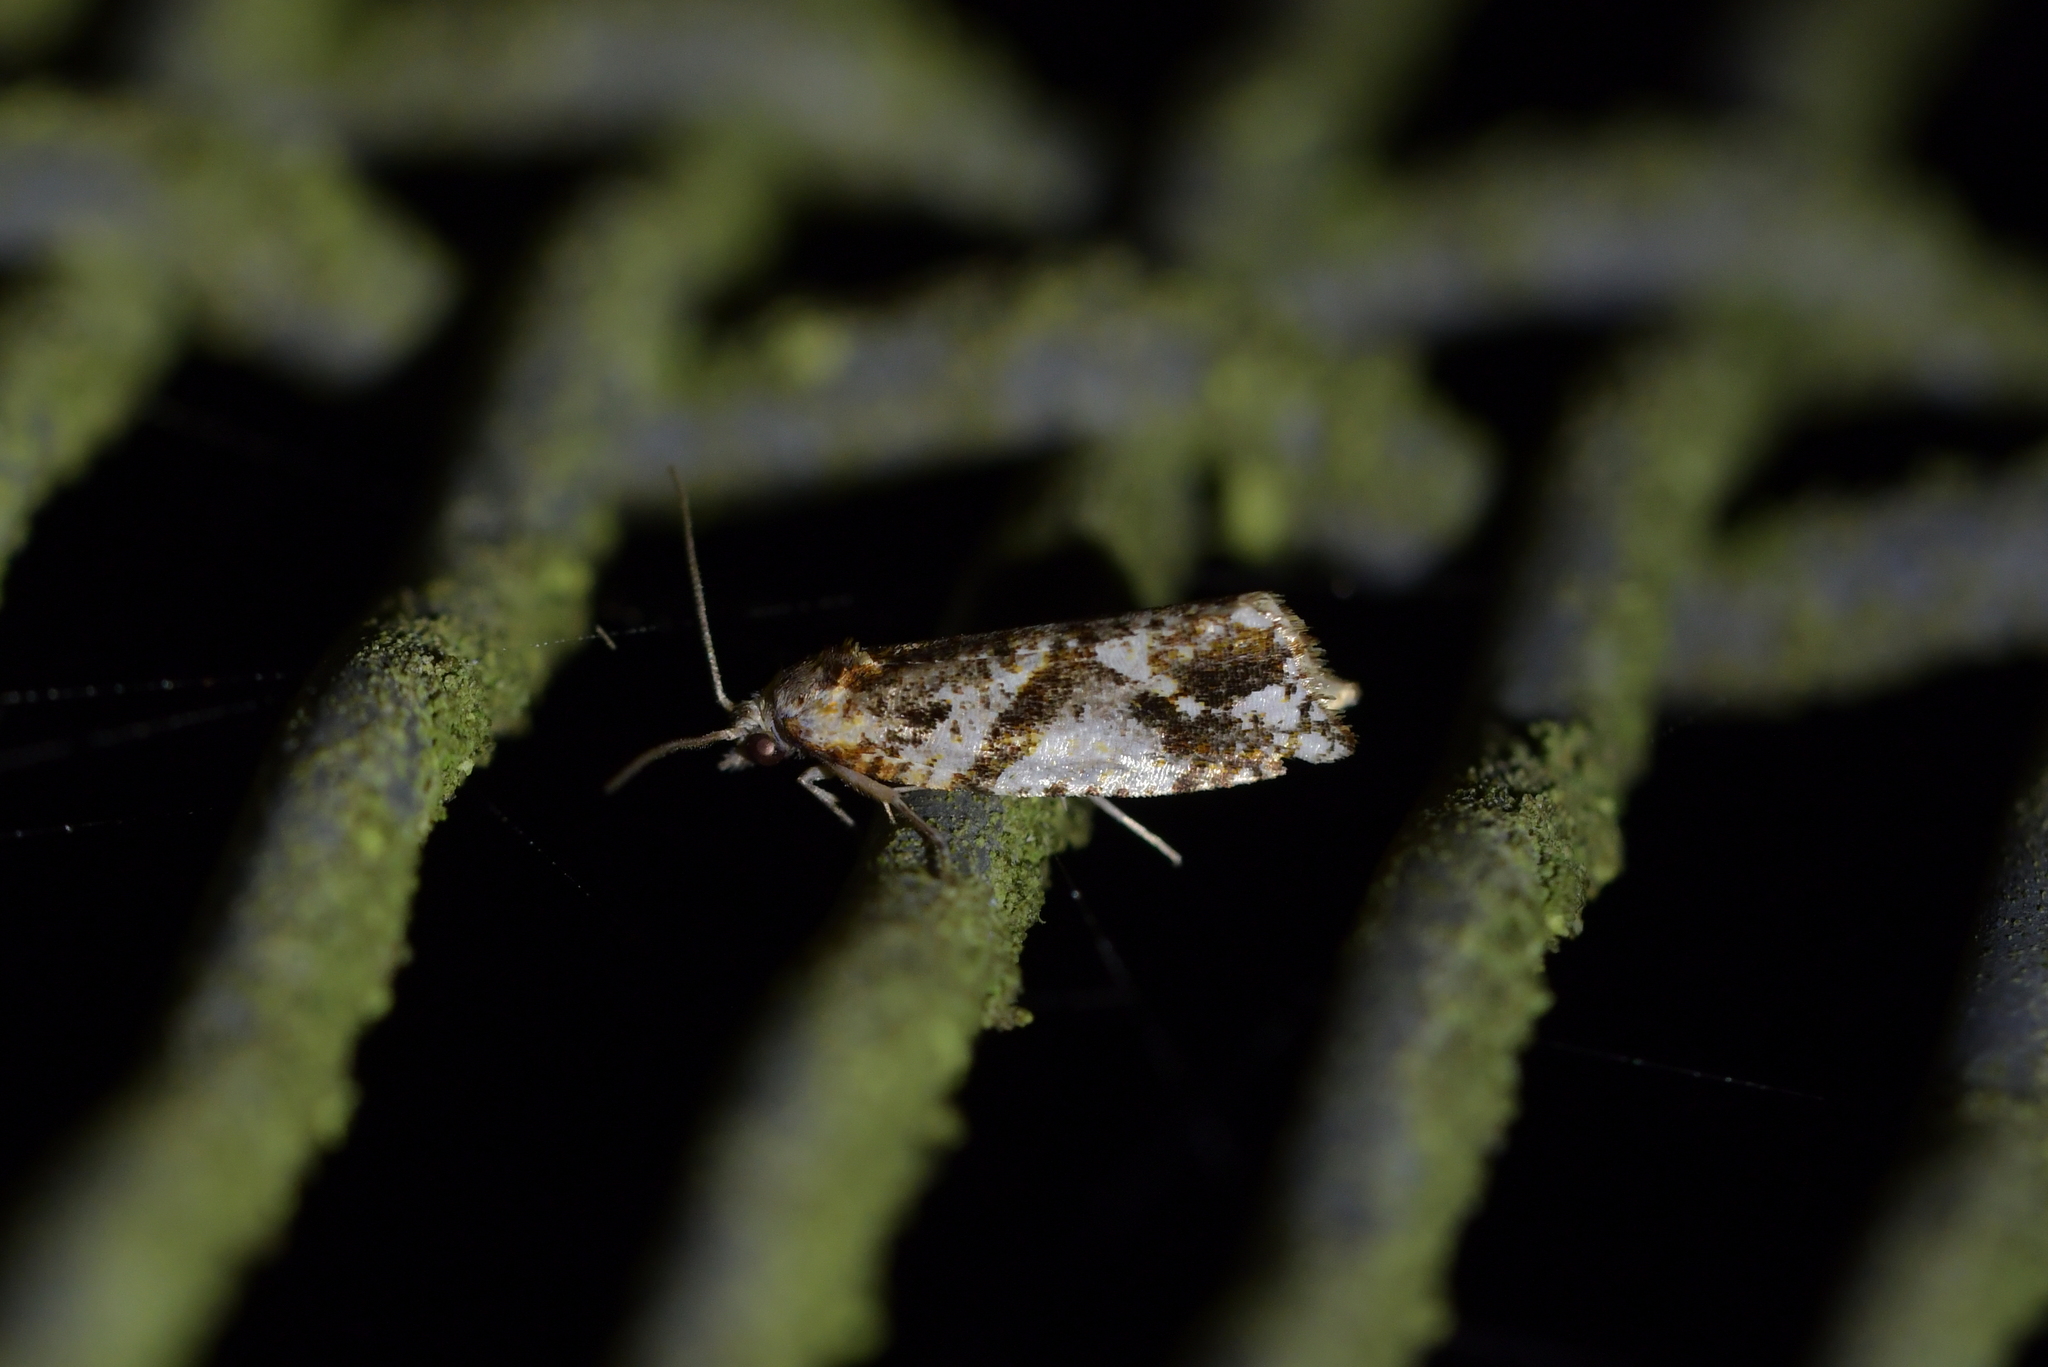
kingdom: Animalia
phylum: Arthropoda
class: Insecta
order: Lepidoptera
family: Tortricidae
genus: Pyrgotis
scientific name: Pyrgotis plagiatana
